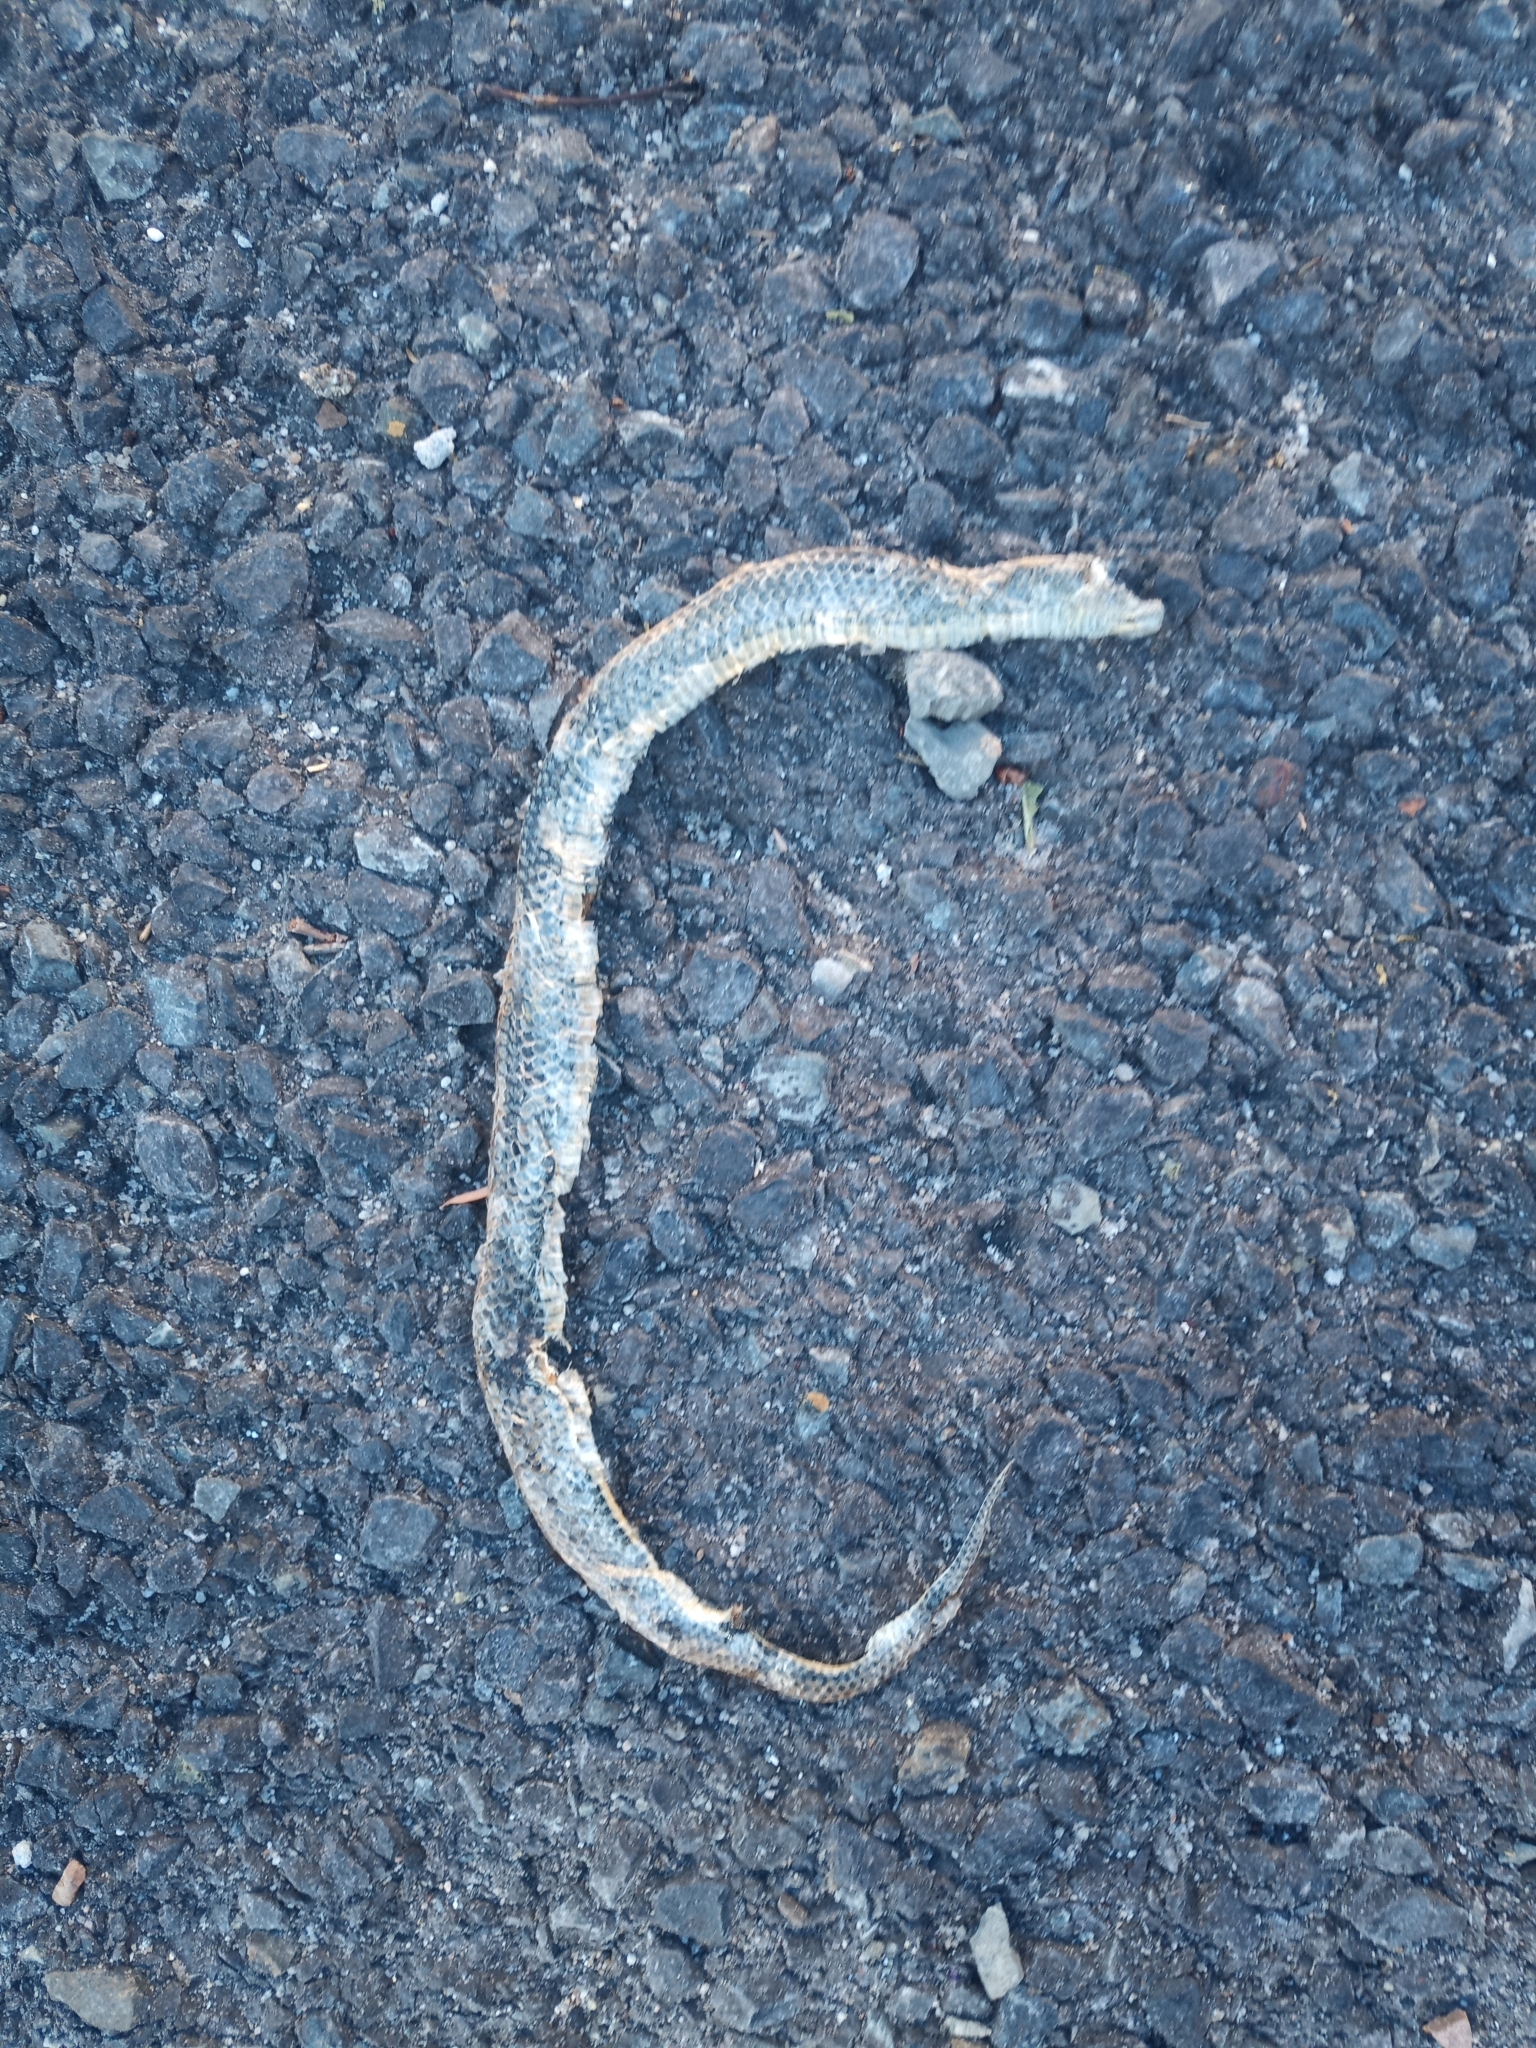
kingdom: Animalia
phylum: Chordata
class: Squamata
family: Pseudoxyrhophiidae
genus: Duberria
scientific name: Duberria lutrix
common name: Common slug eater
